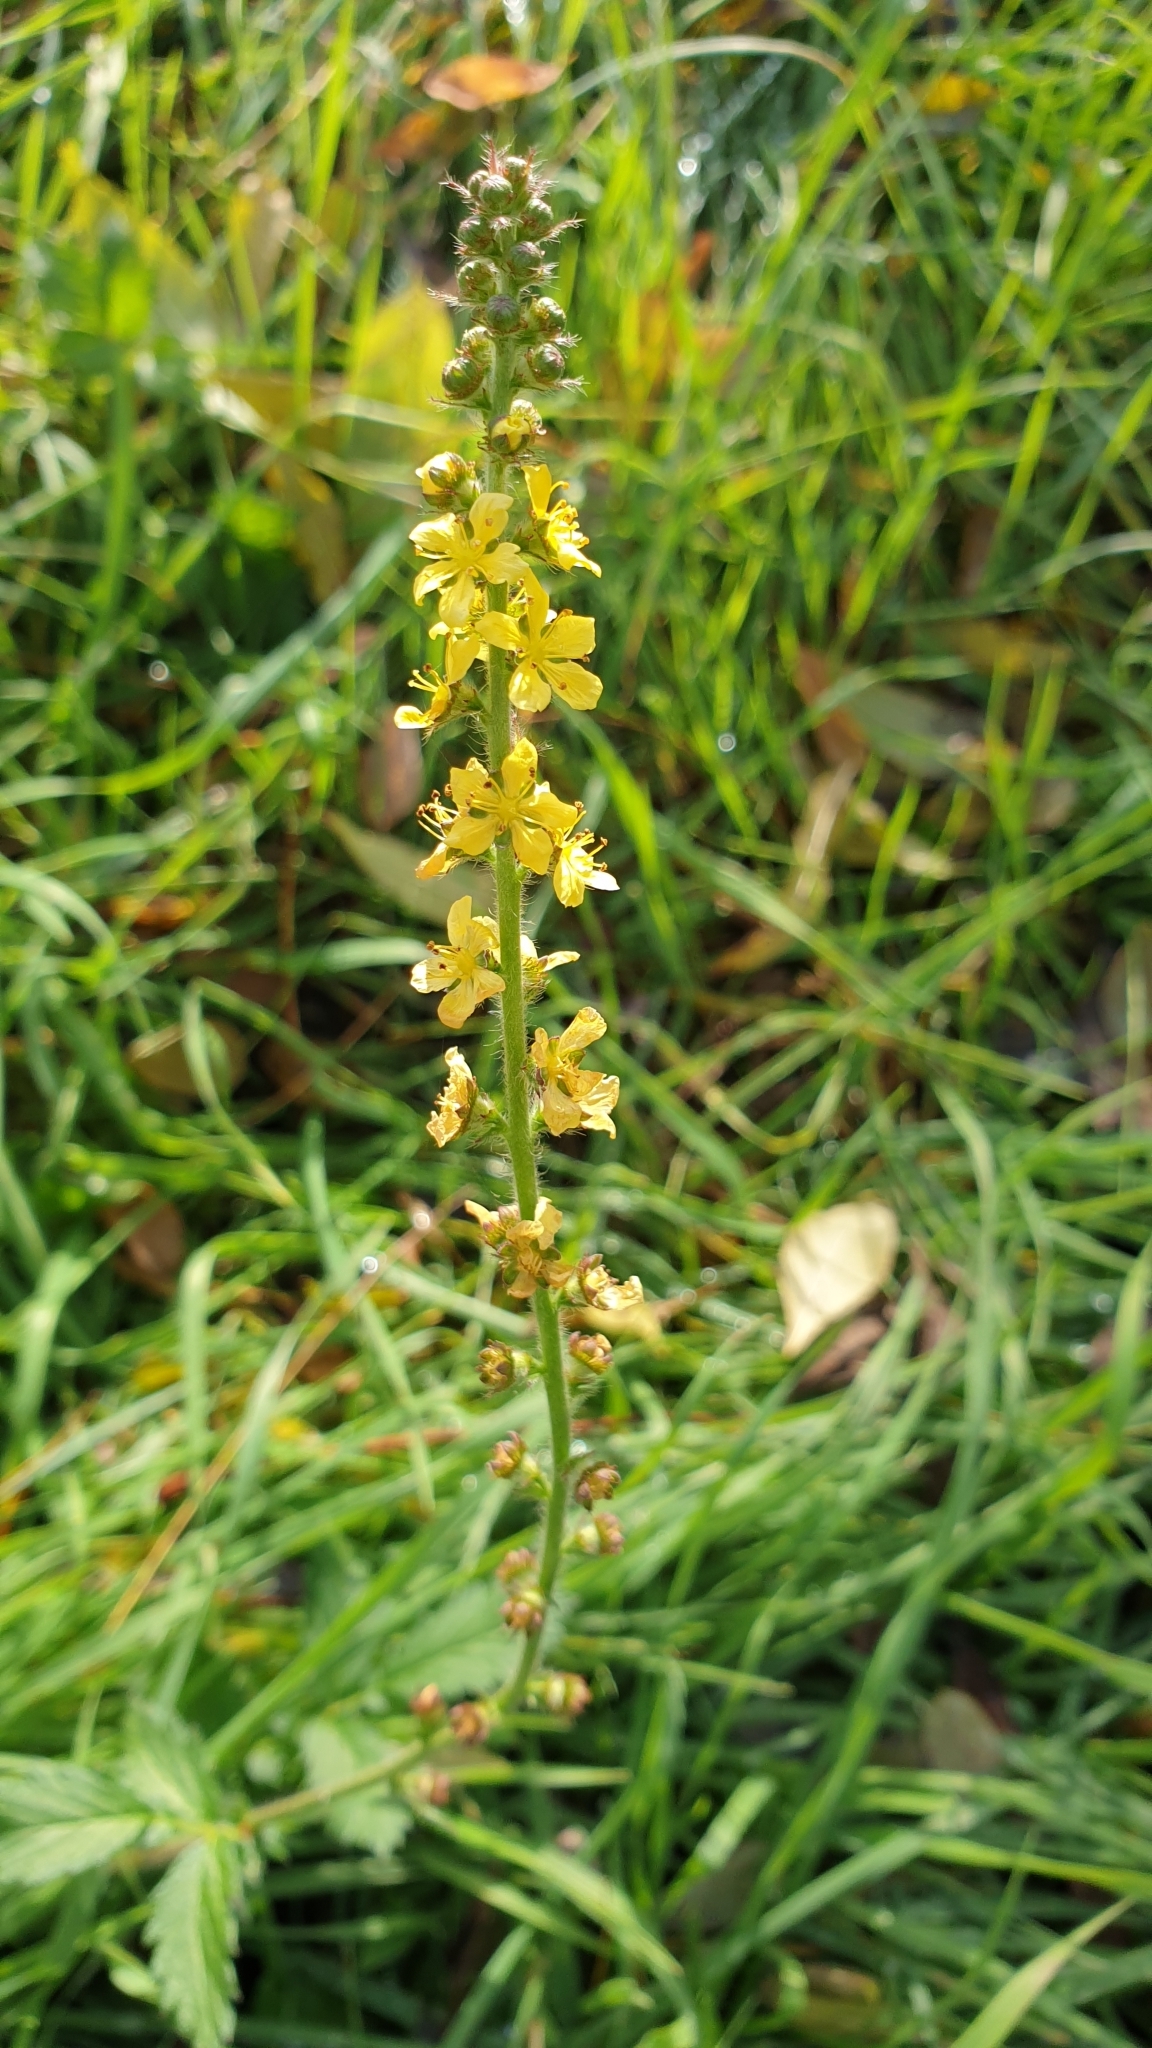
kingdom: Plantae
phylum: Tracheophyta
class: Magnoliopsida
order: Rosales
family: Rosaceae
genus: Agrimonia
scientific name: Agrimonia eupatoria
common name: Agrimony
